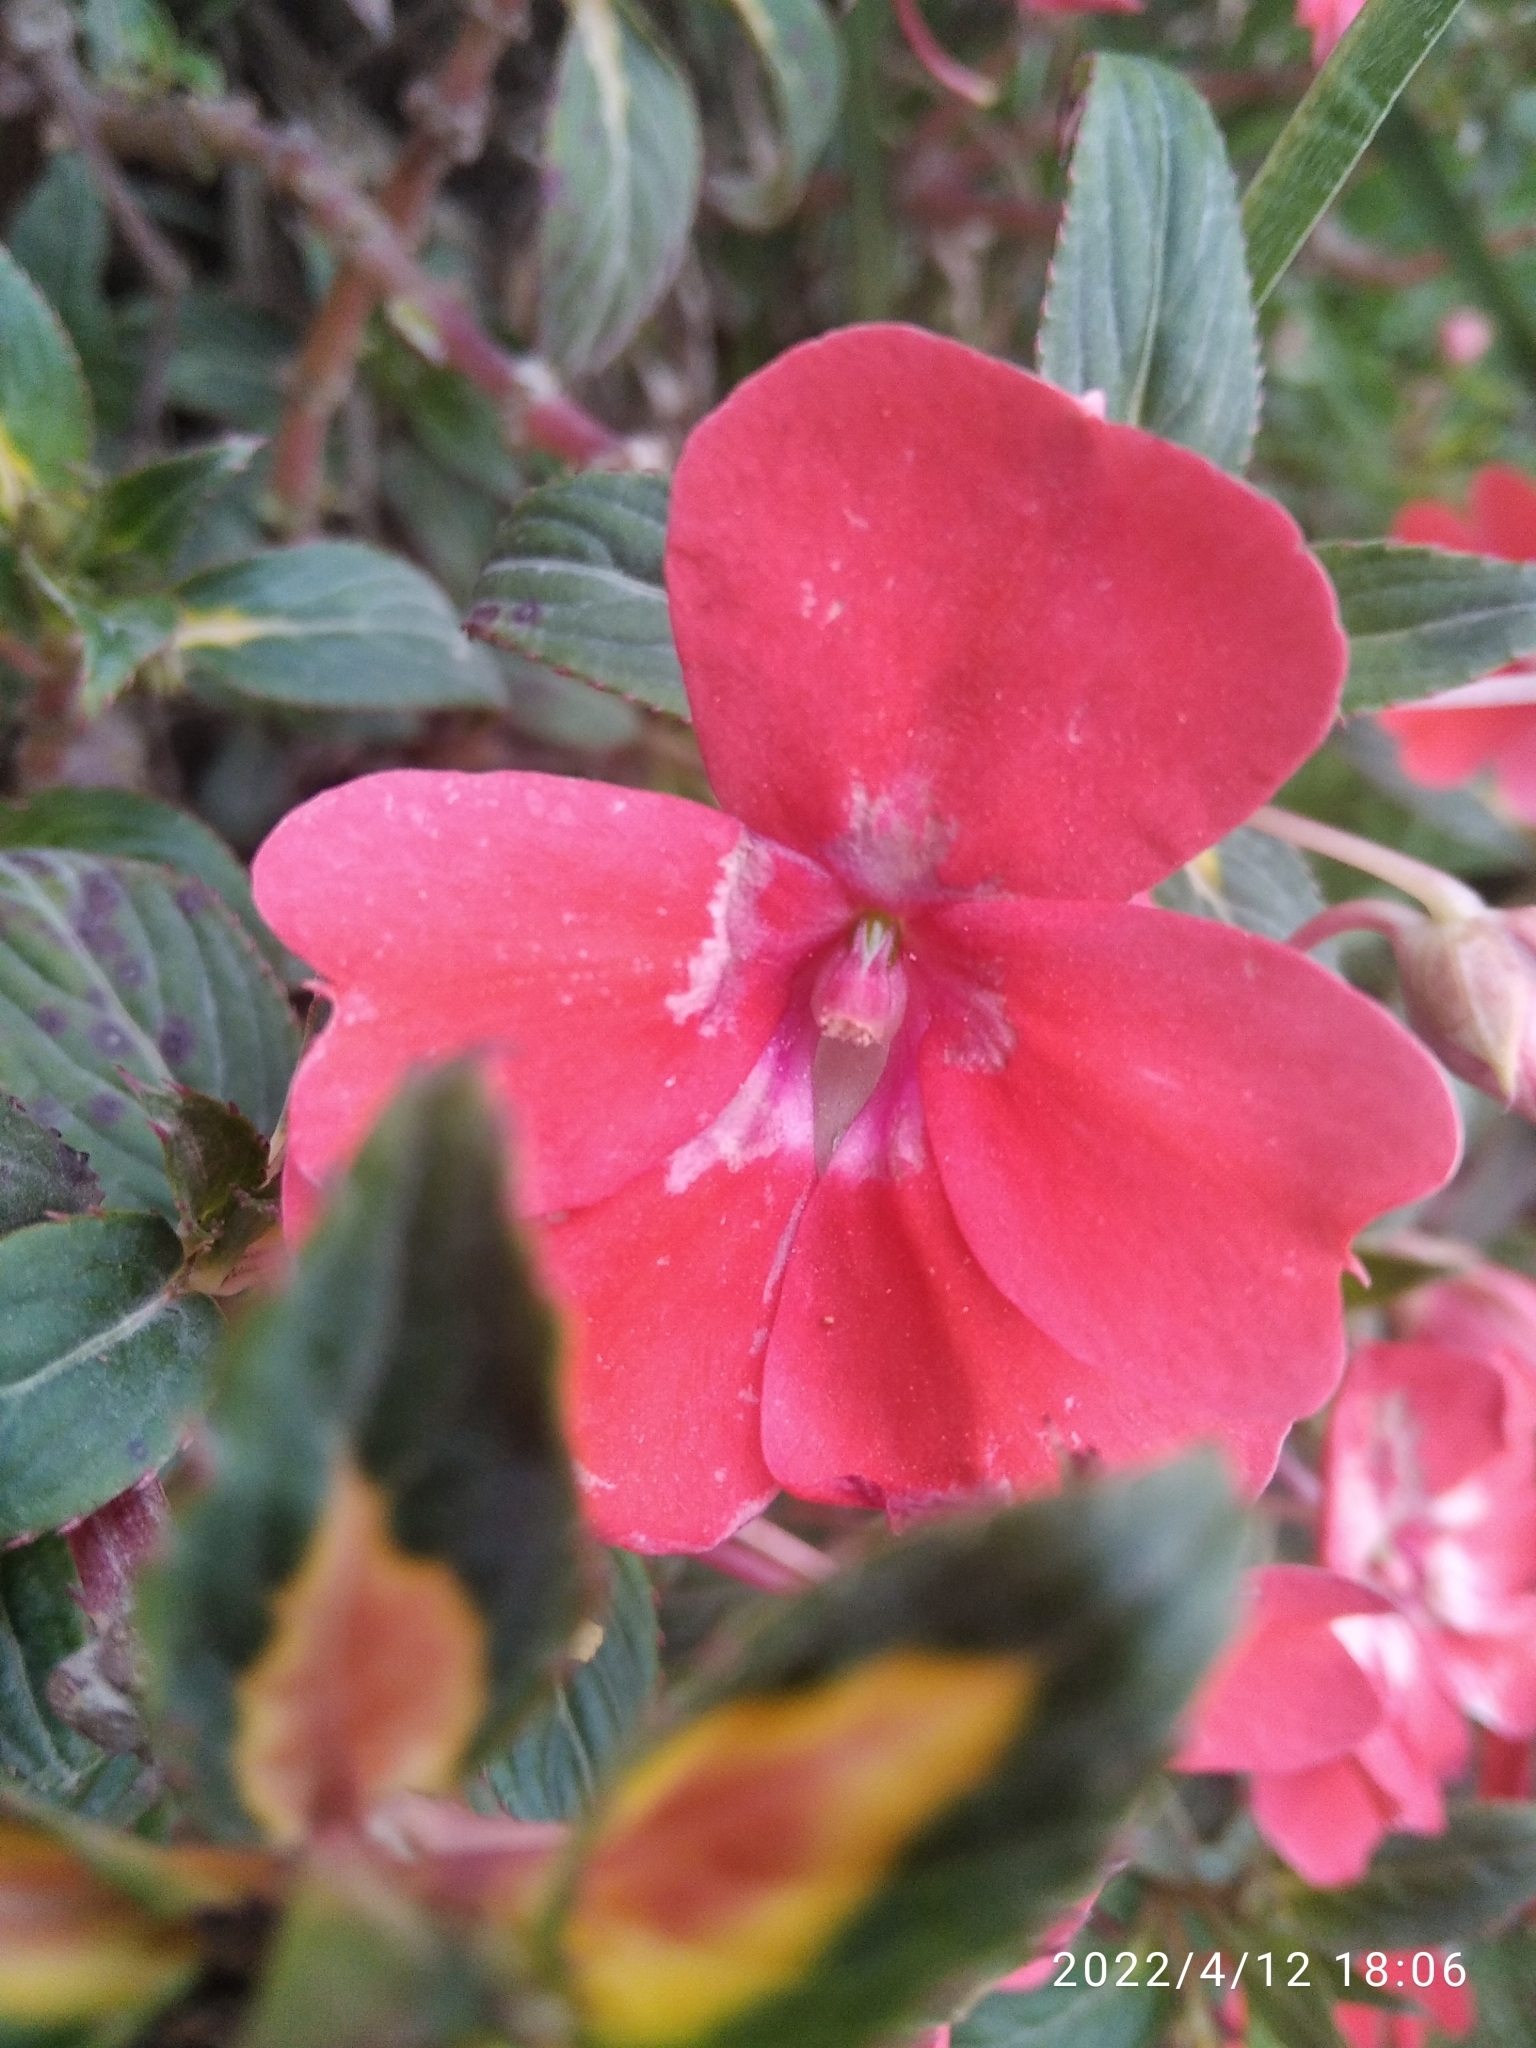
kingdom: Plantae
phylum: Tracheophyta
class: Magnoliopsida
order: Ericales
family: Balsaminaceae
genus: Impatiens
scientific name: Impatiens hawkeri
